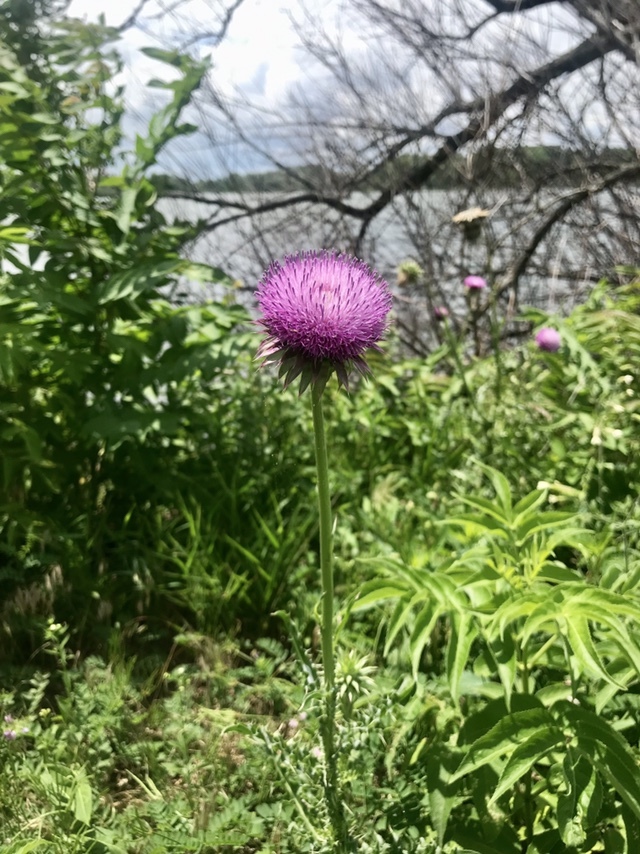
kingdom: Plantae
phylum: Tracheophyta
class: Magnoliopsida
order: Asterales
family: Asteraceae
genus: Carduus
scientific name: Carduus nutans
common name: Musk thistle
